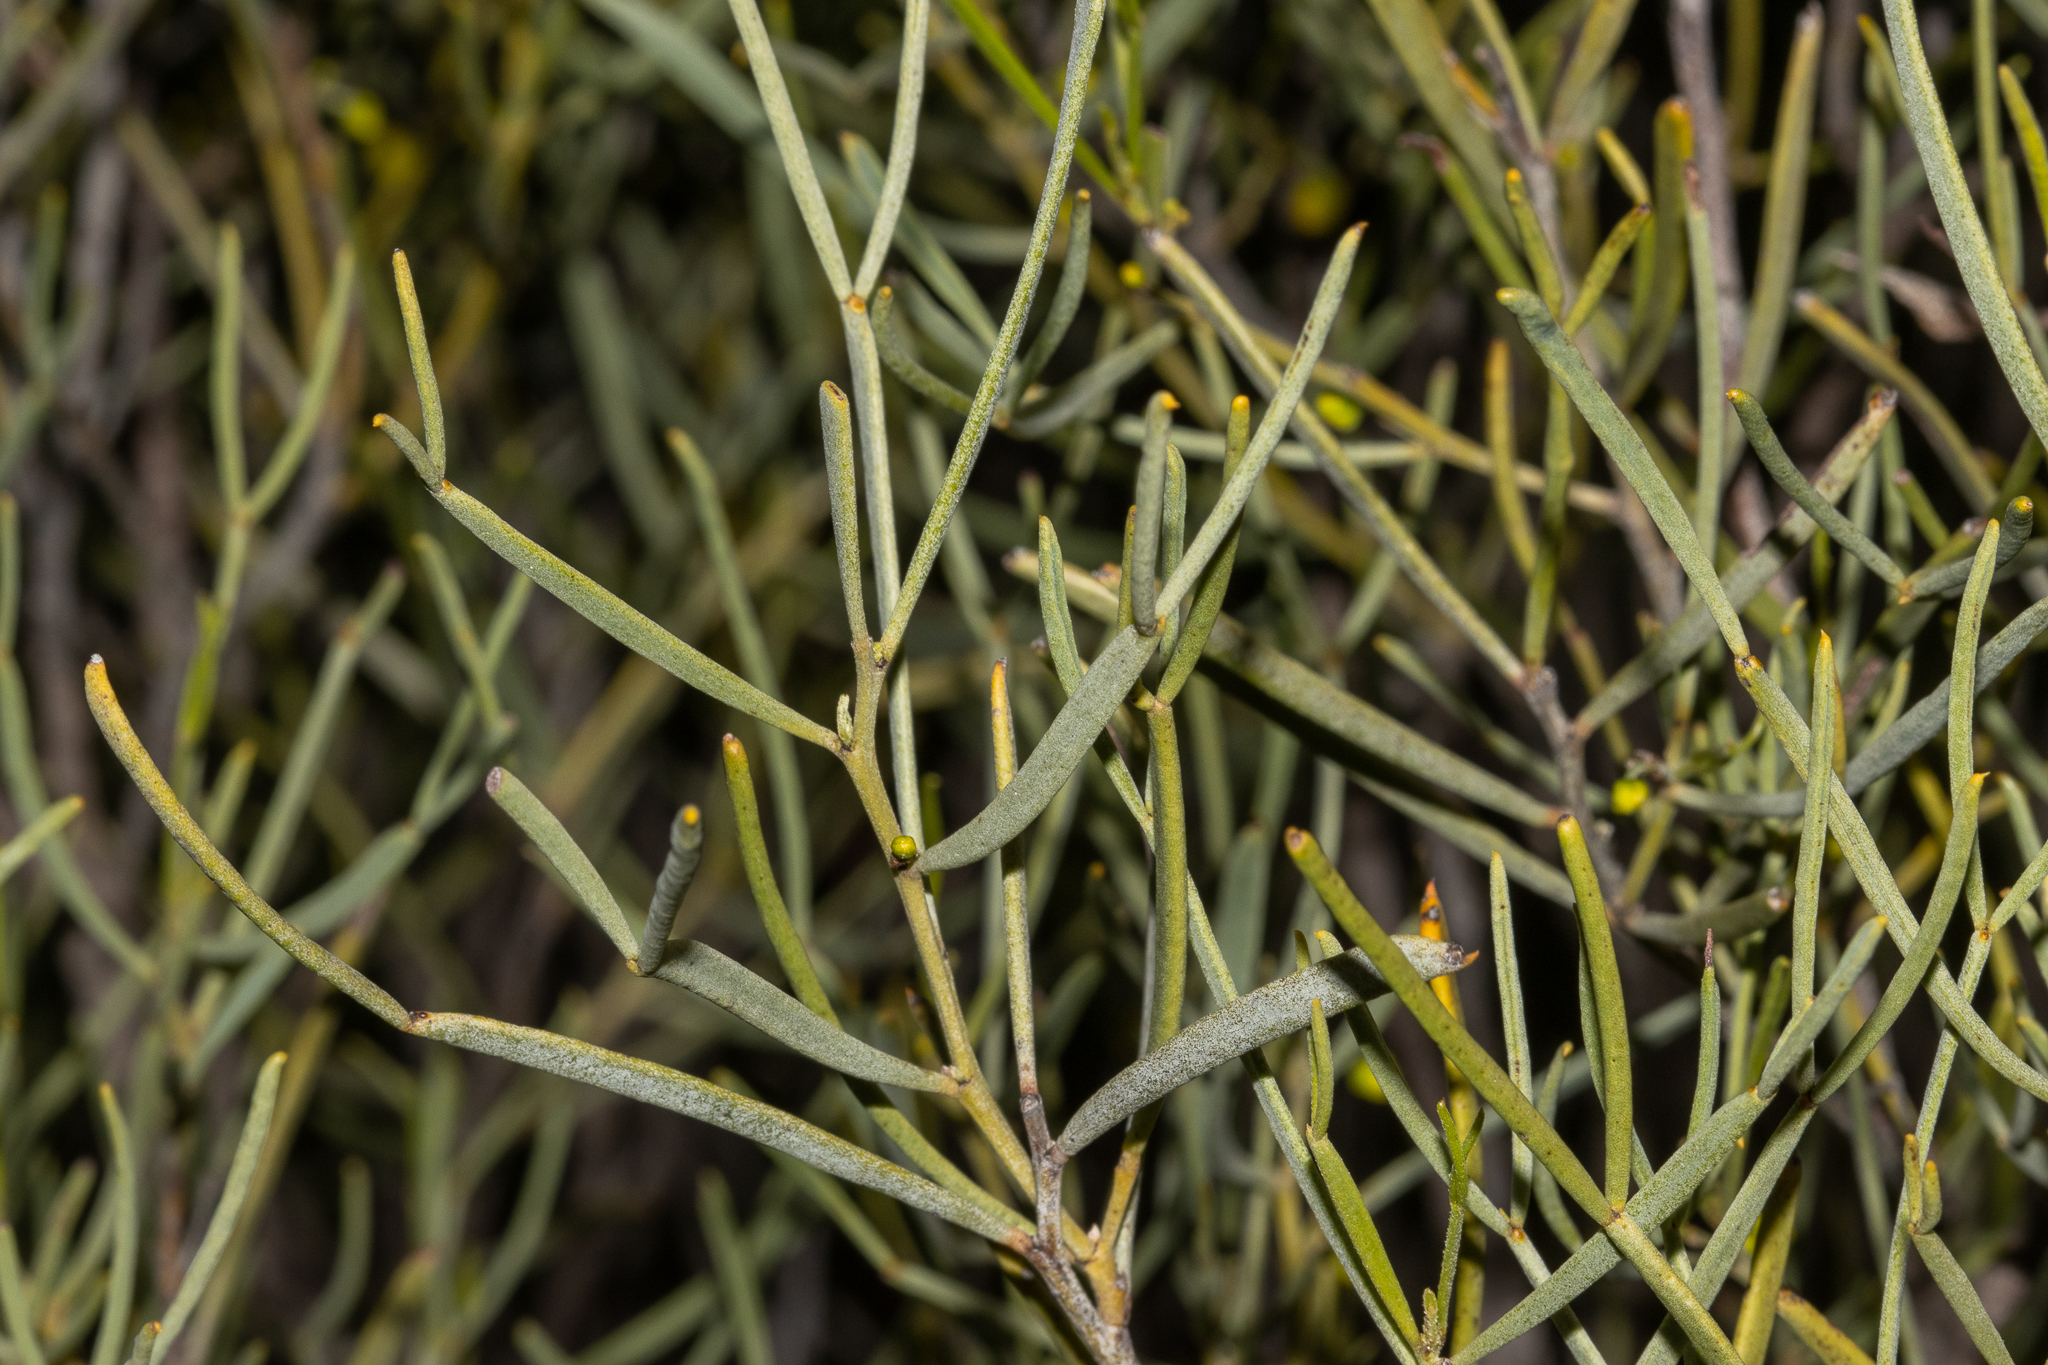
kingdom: Plantae
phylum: Tracheophyta
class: Magnoliopsida
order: Fabales
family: Fabaceae
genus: Senna
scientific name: Senna artemisioides
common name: Burnt-leaved acacia
